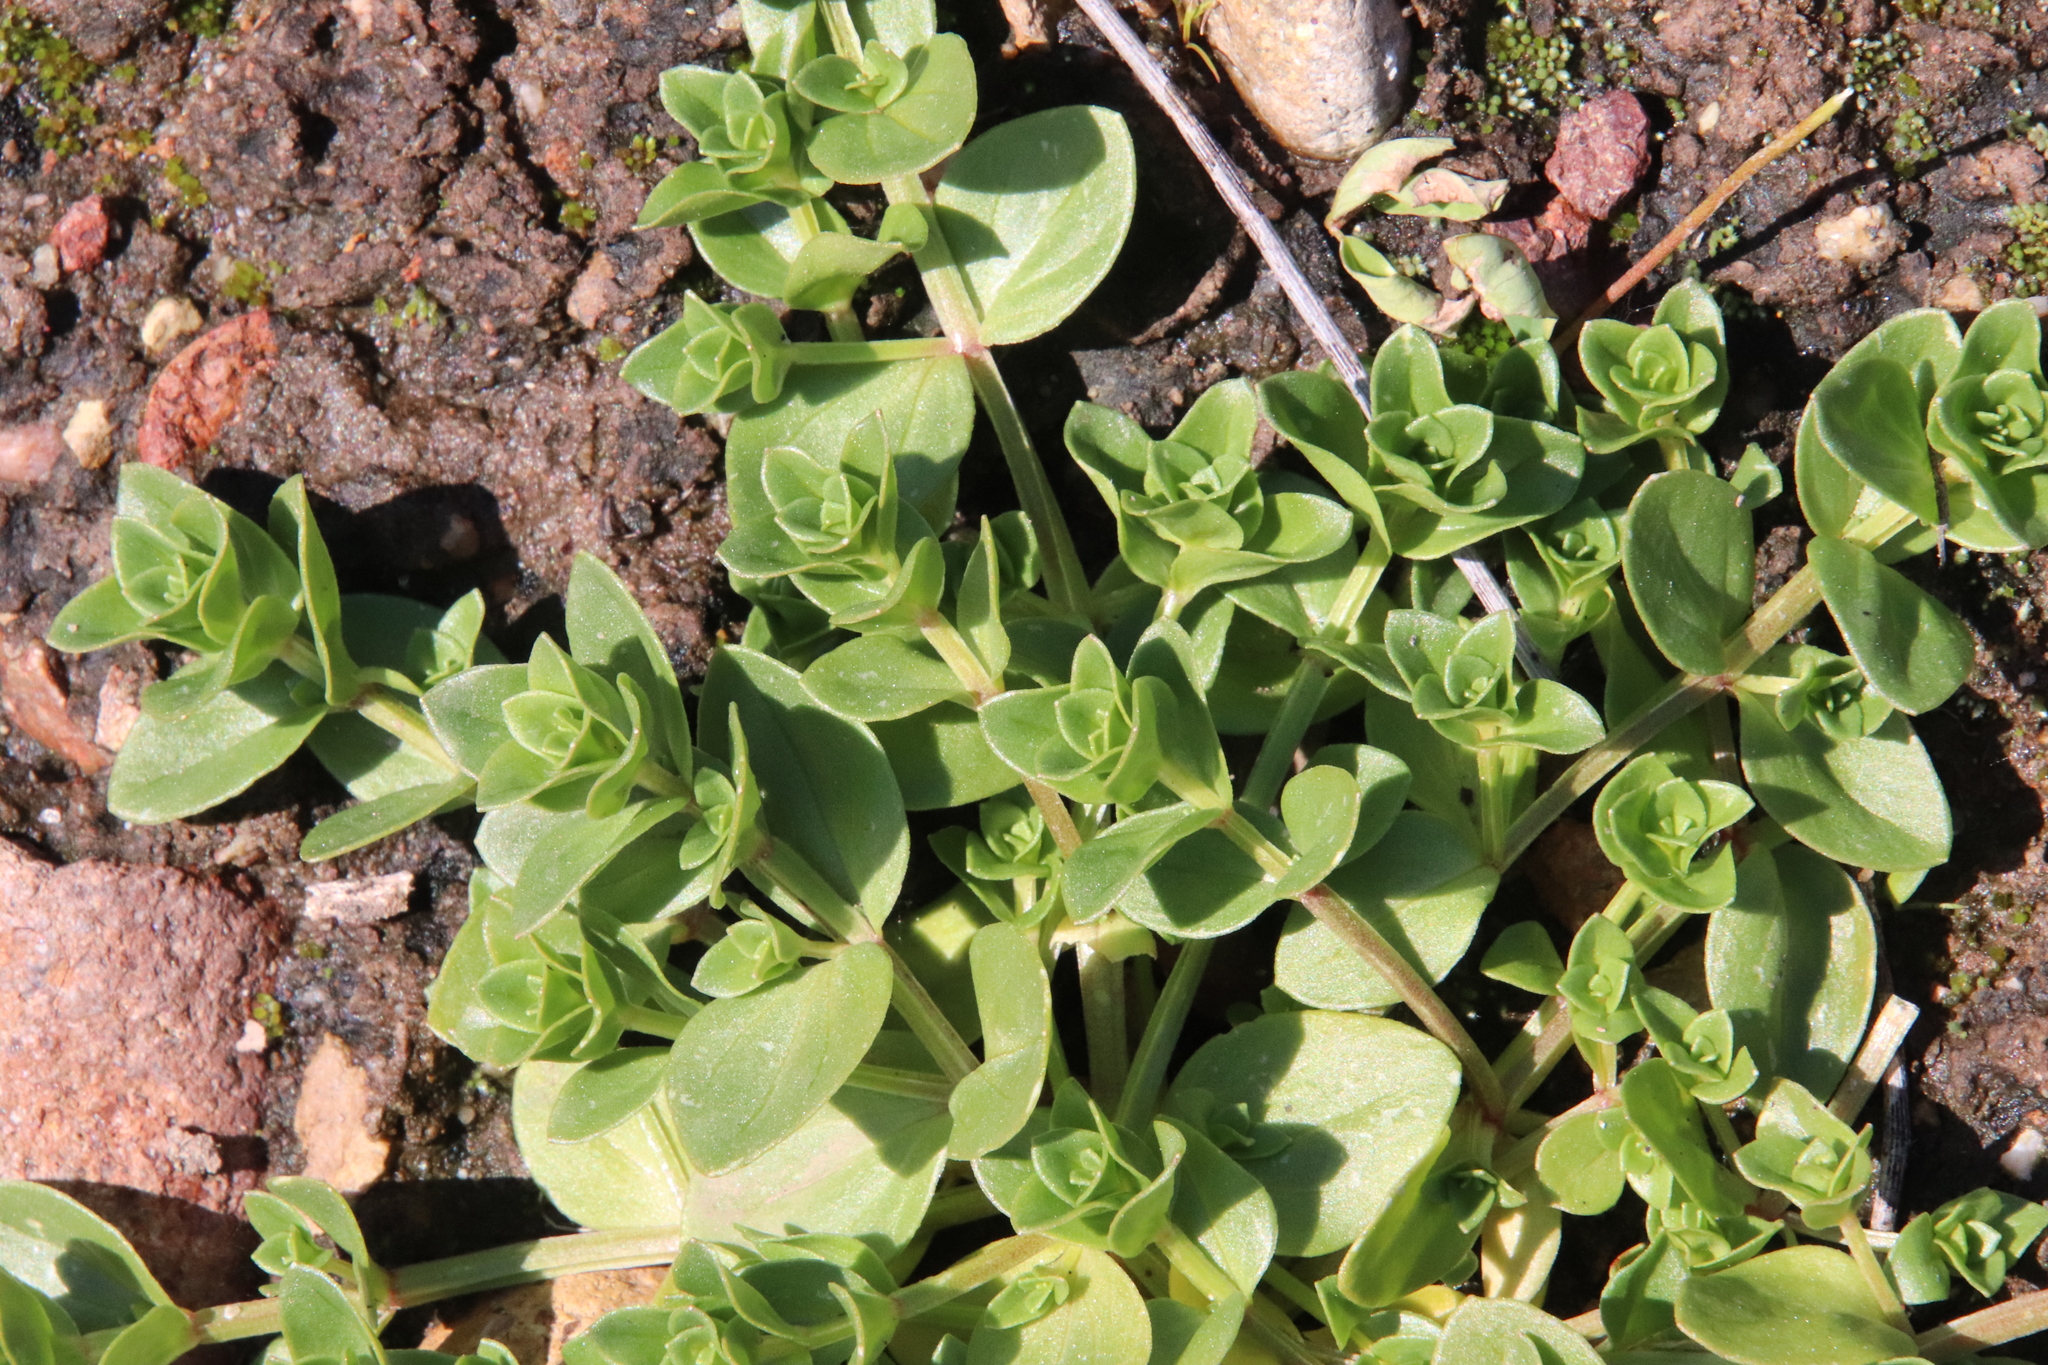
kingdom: Plantae
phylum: Tracheophyta
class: Magnoliopsida
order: Ericales
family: Primulaceae
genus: Lysimachia
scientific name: Lysimachia arvensis
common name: Scarlet pimpernel
